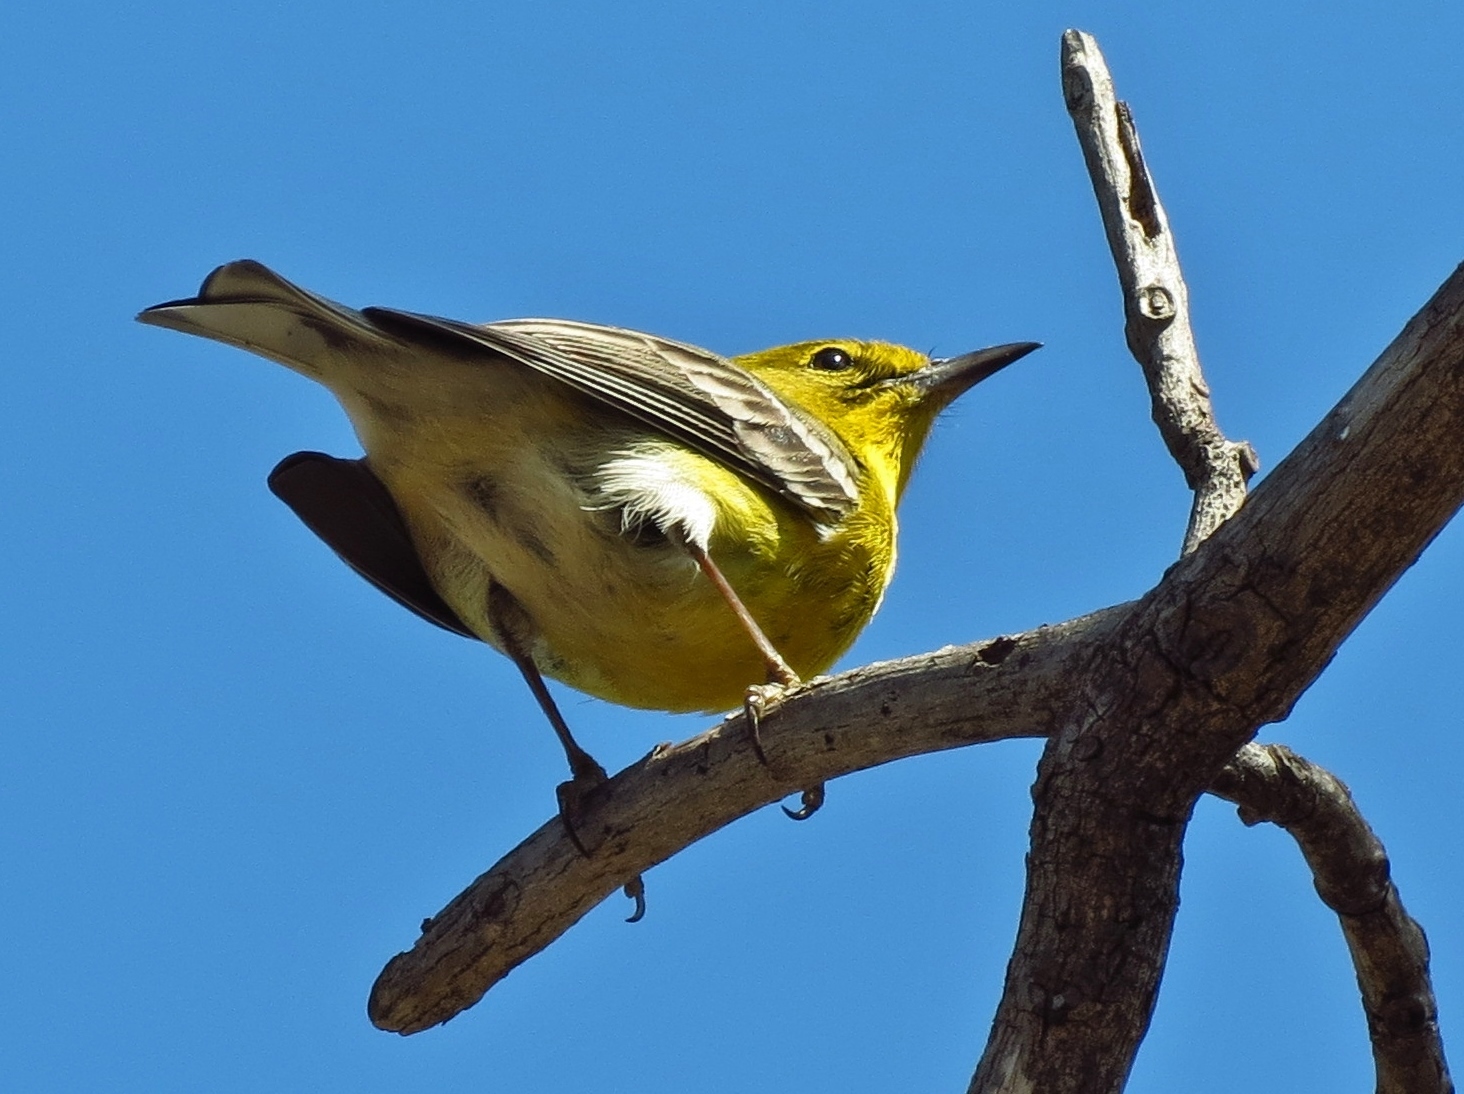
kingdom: Animalia
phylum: Chordata
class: Aves
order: Passeriformes
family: Parulidae
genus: Setophaga
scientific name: Setophaga pinus
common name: Pine warbler
